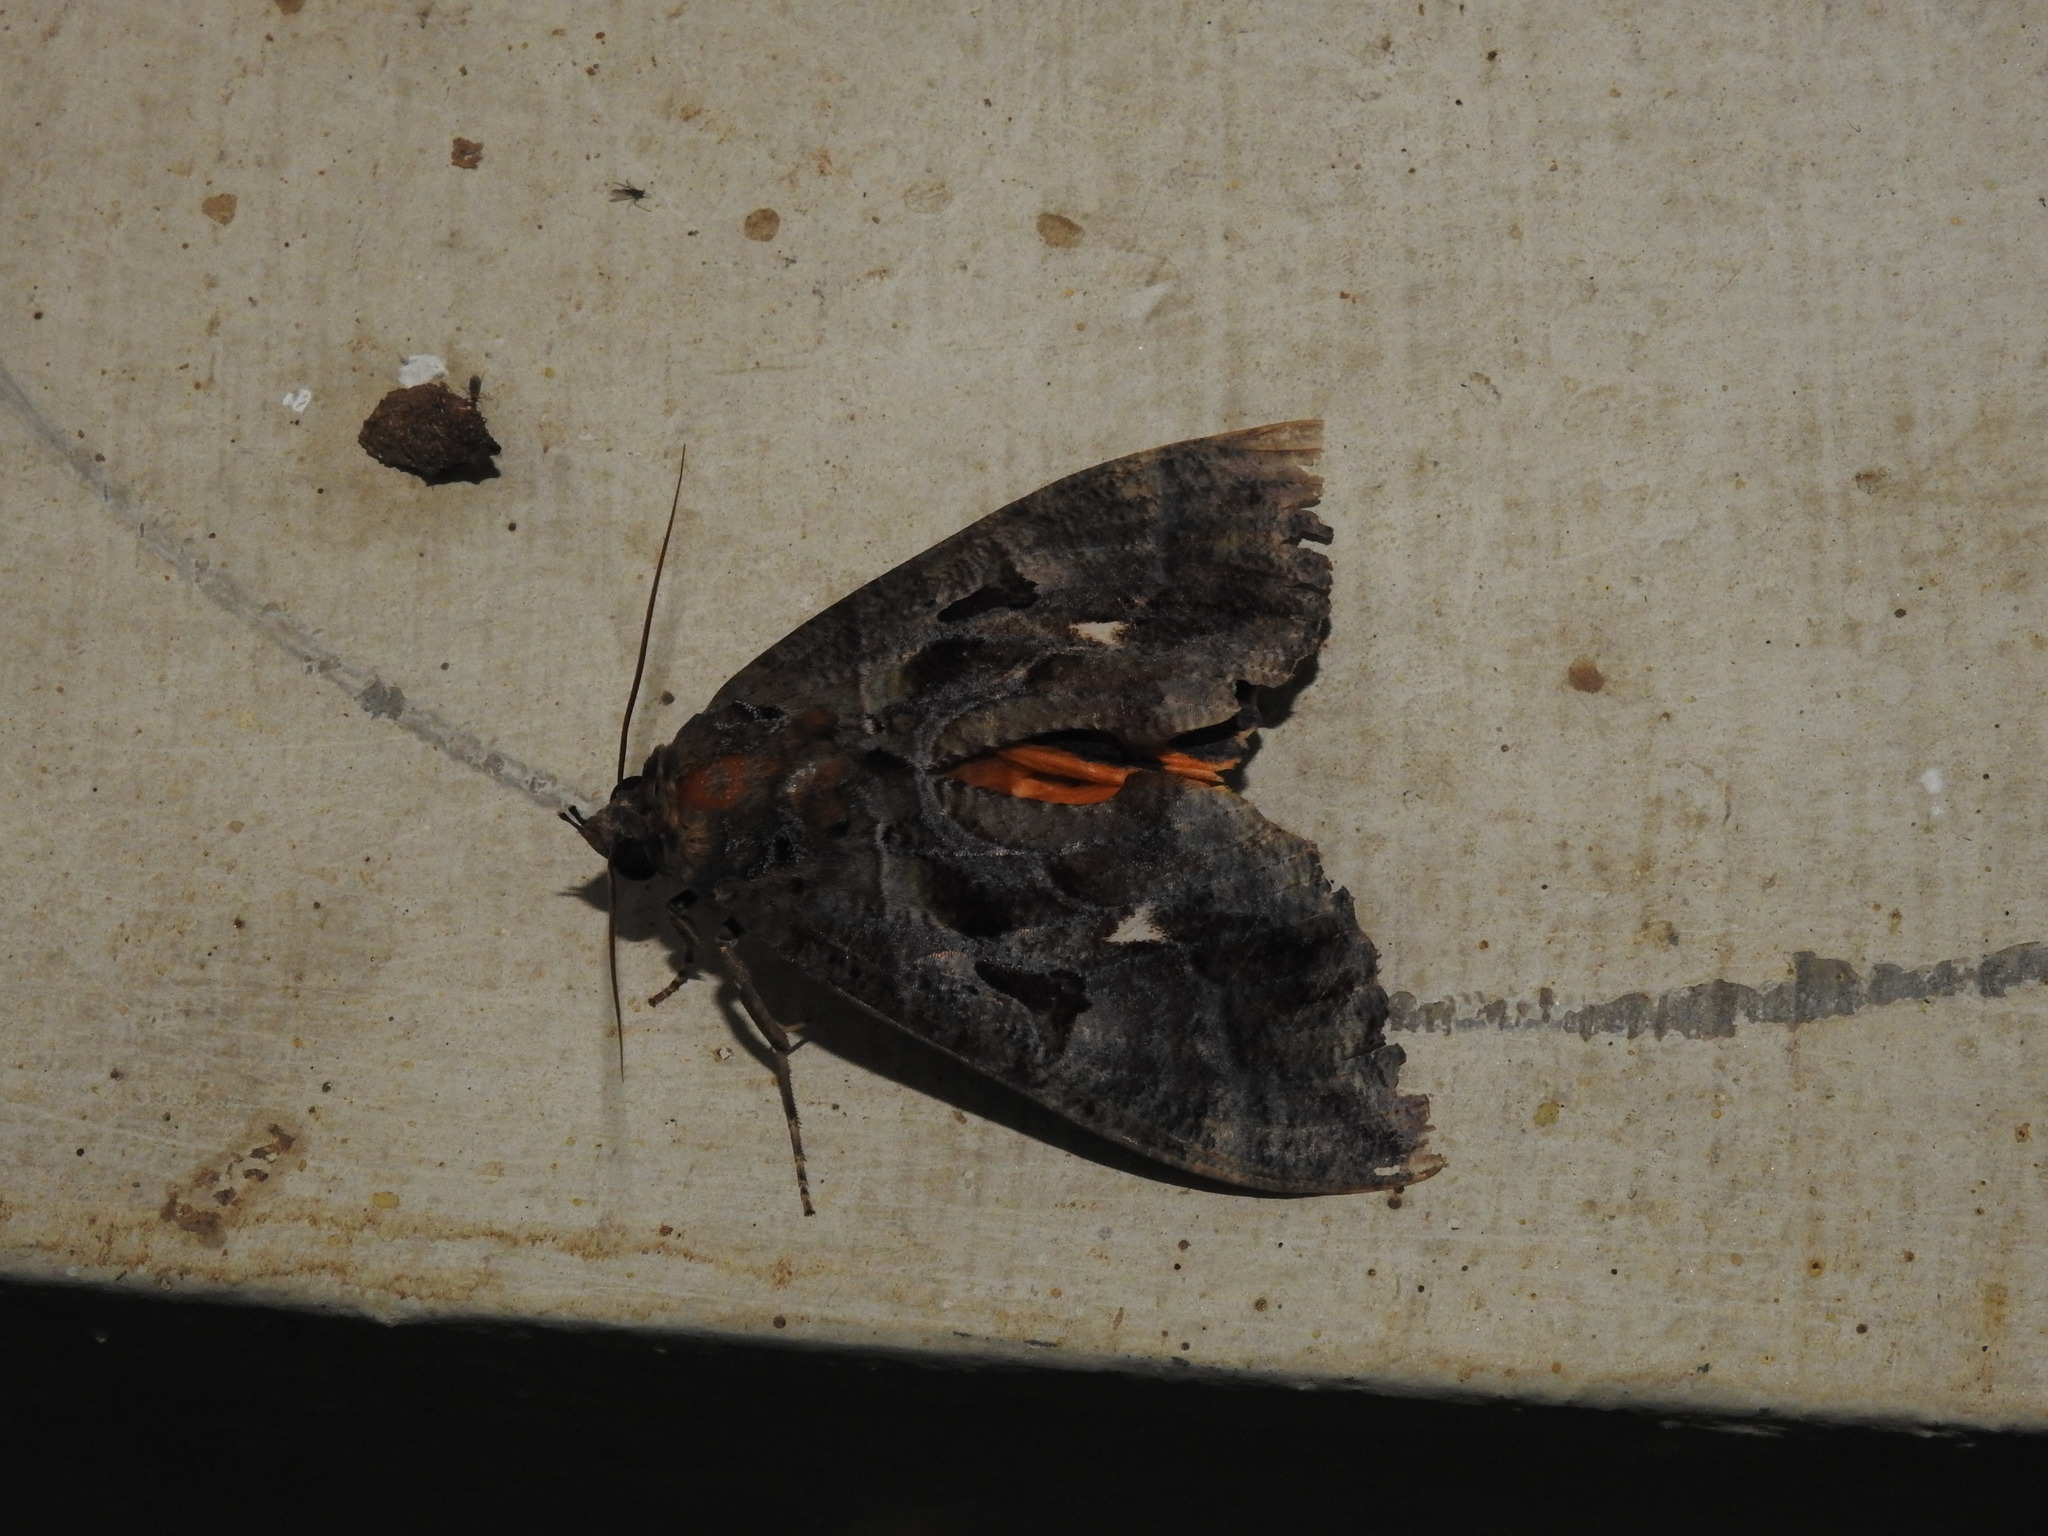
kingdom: Animalia
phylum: Arthropoda
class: Insecta
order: Lepidoptera
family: Erebidae
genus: Eudocima
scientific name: Eudocima phalonia
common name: Wasp
